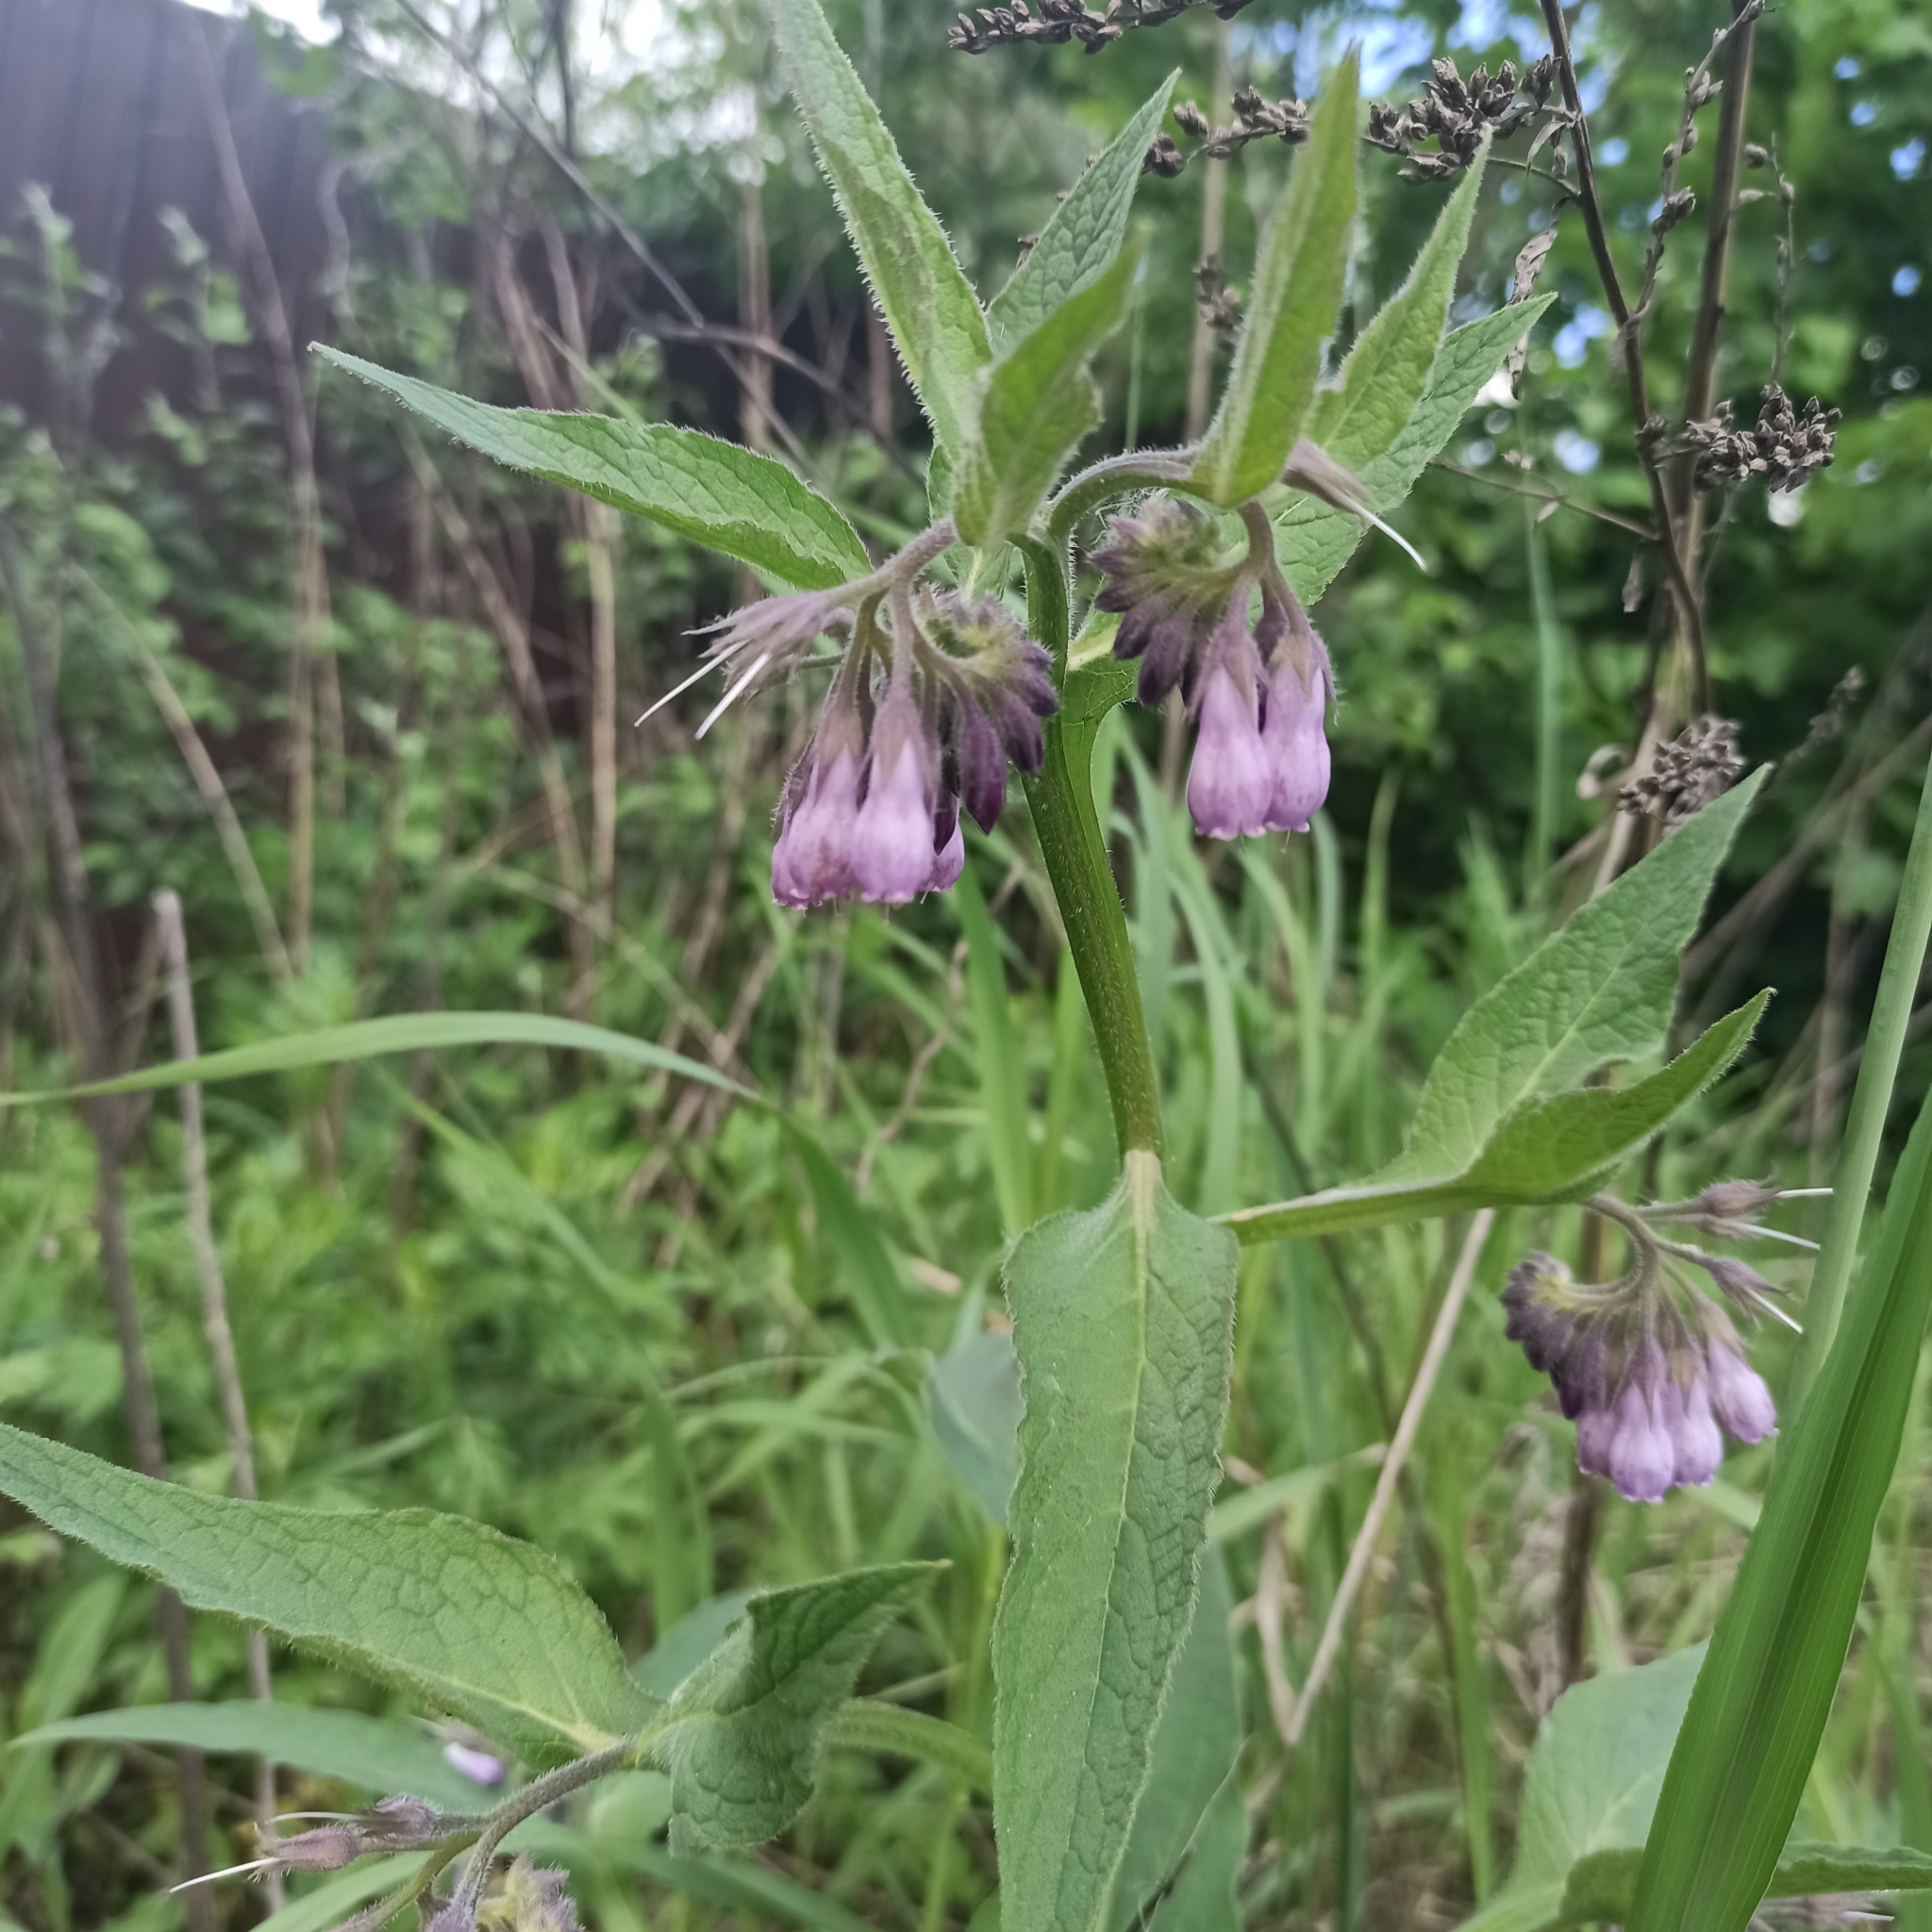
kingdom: Plantae
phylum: Tracheophyta
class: Magnoliopsida
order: Boraginales
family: Boraginaceae
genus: Symphytum
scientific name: Symphytum officinale
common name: Common comfrey
